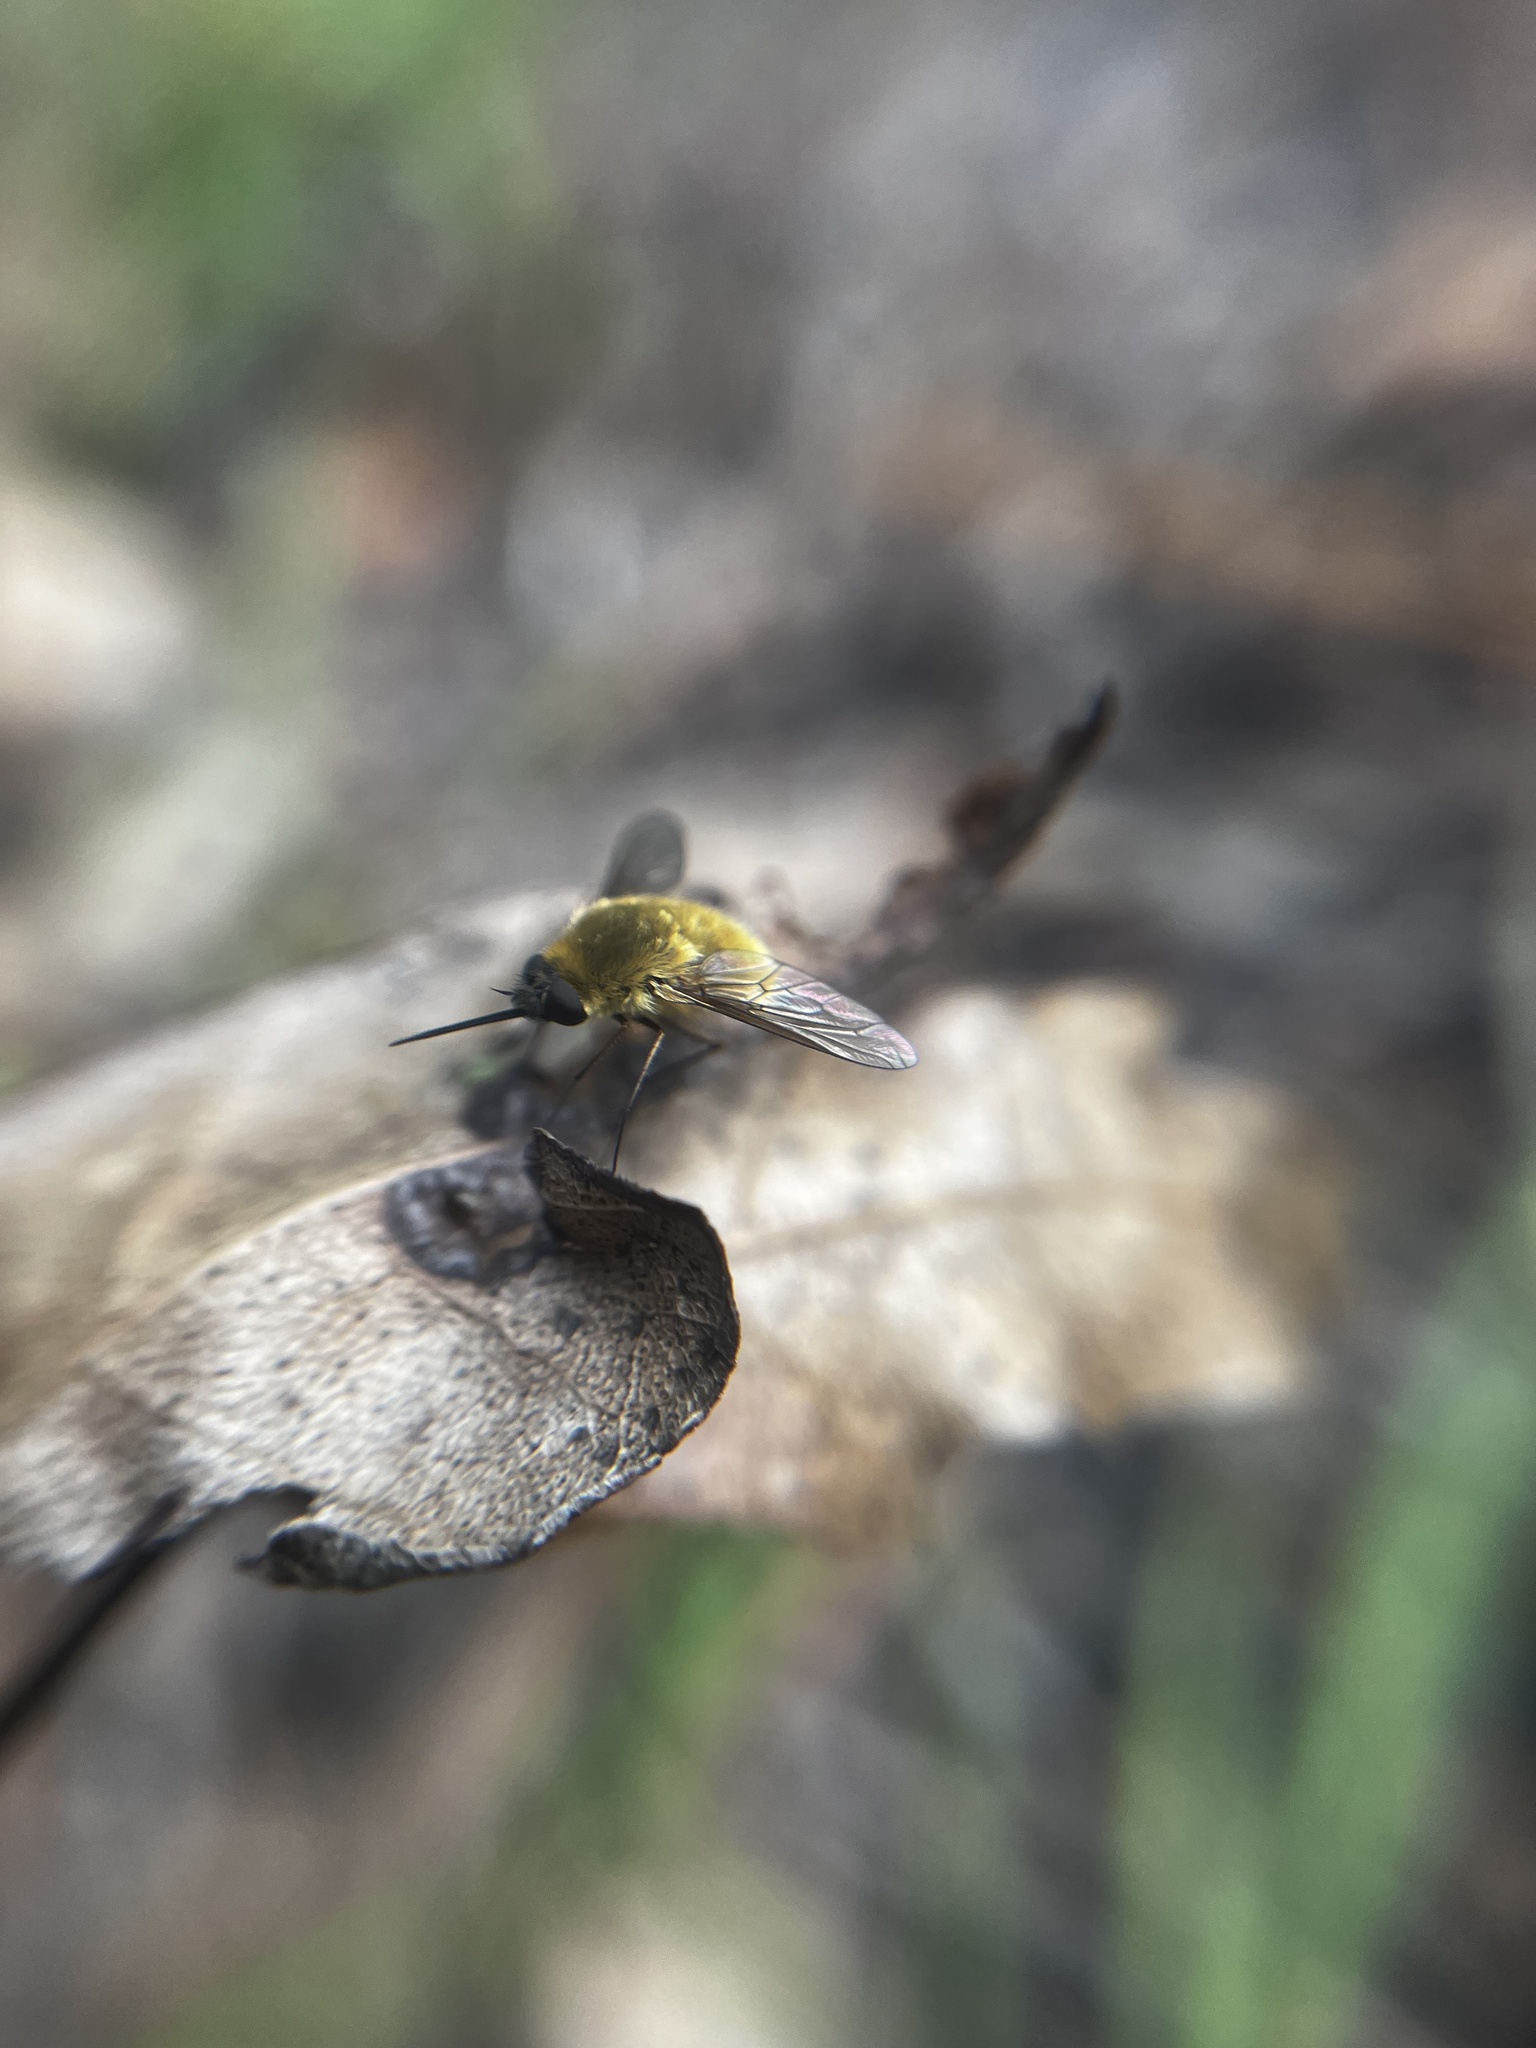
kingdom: Animalia
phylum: Arthropoda
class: Insecta
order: Diptera
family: Bombyliidae
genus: Systoechus
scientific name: Systoechus solitus
